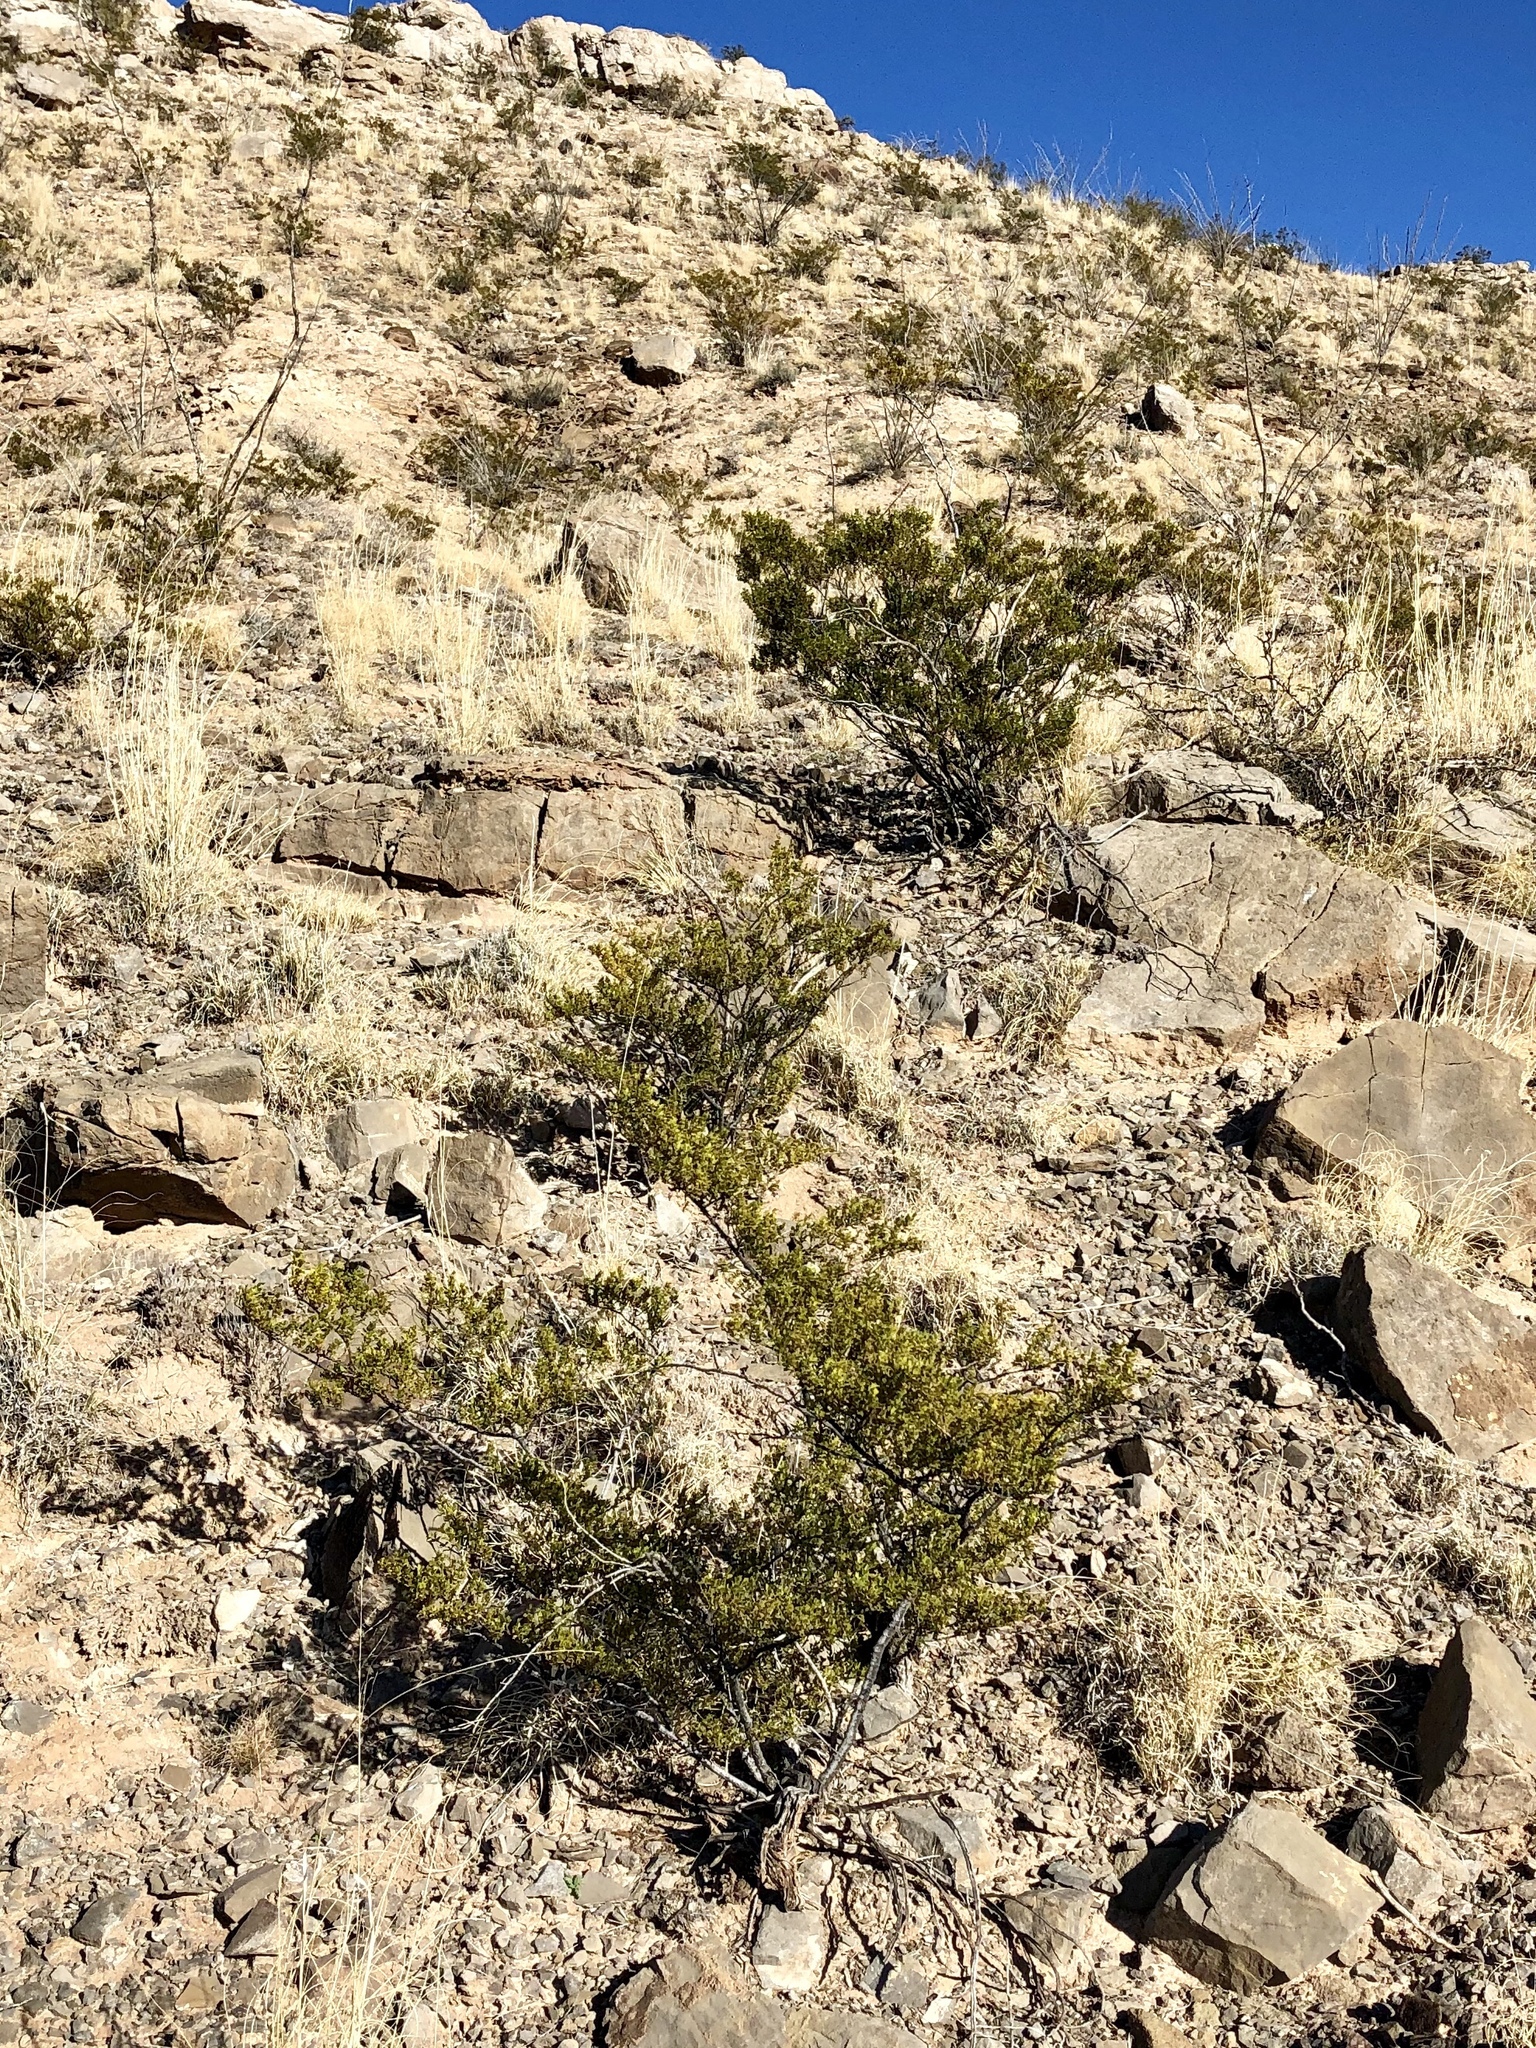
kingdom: Plantae
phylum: Tracheophyta
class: Magnoliopsida
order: Zygophyllales
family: Zygophyllaceae
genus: Larrea
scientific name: Larrea tridentata
